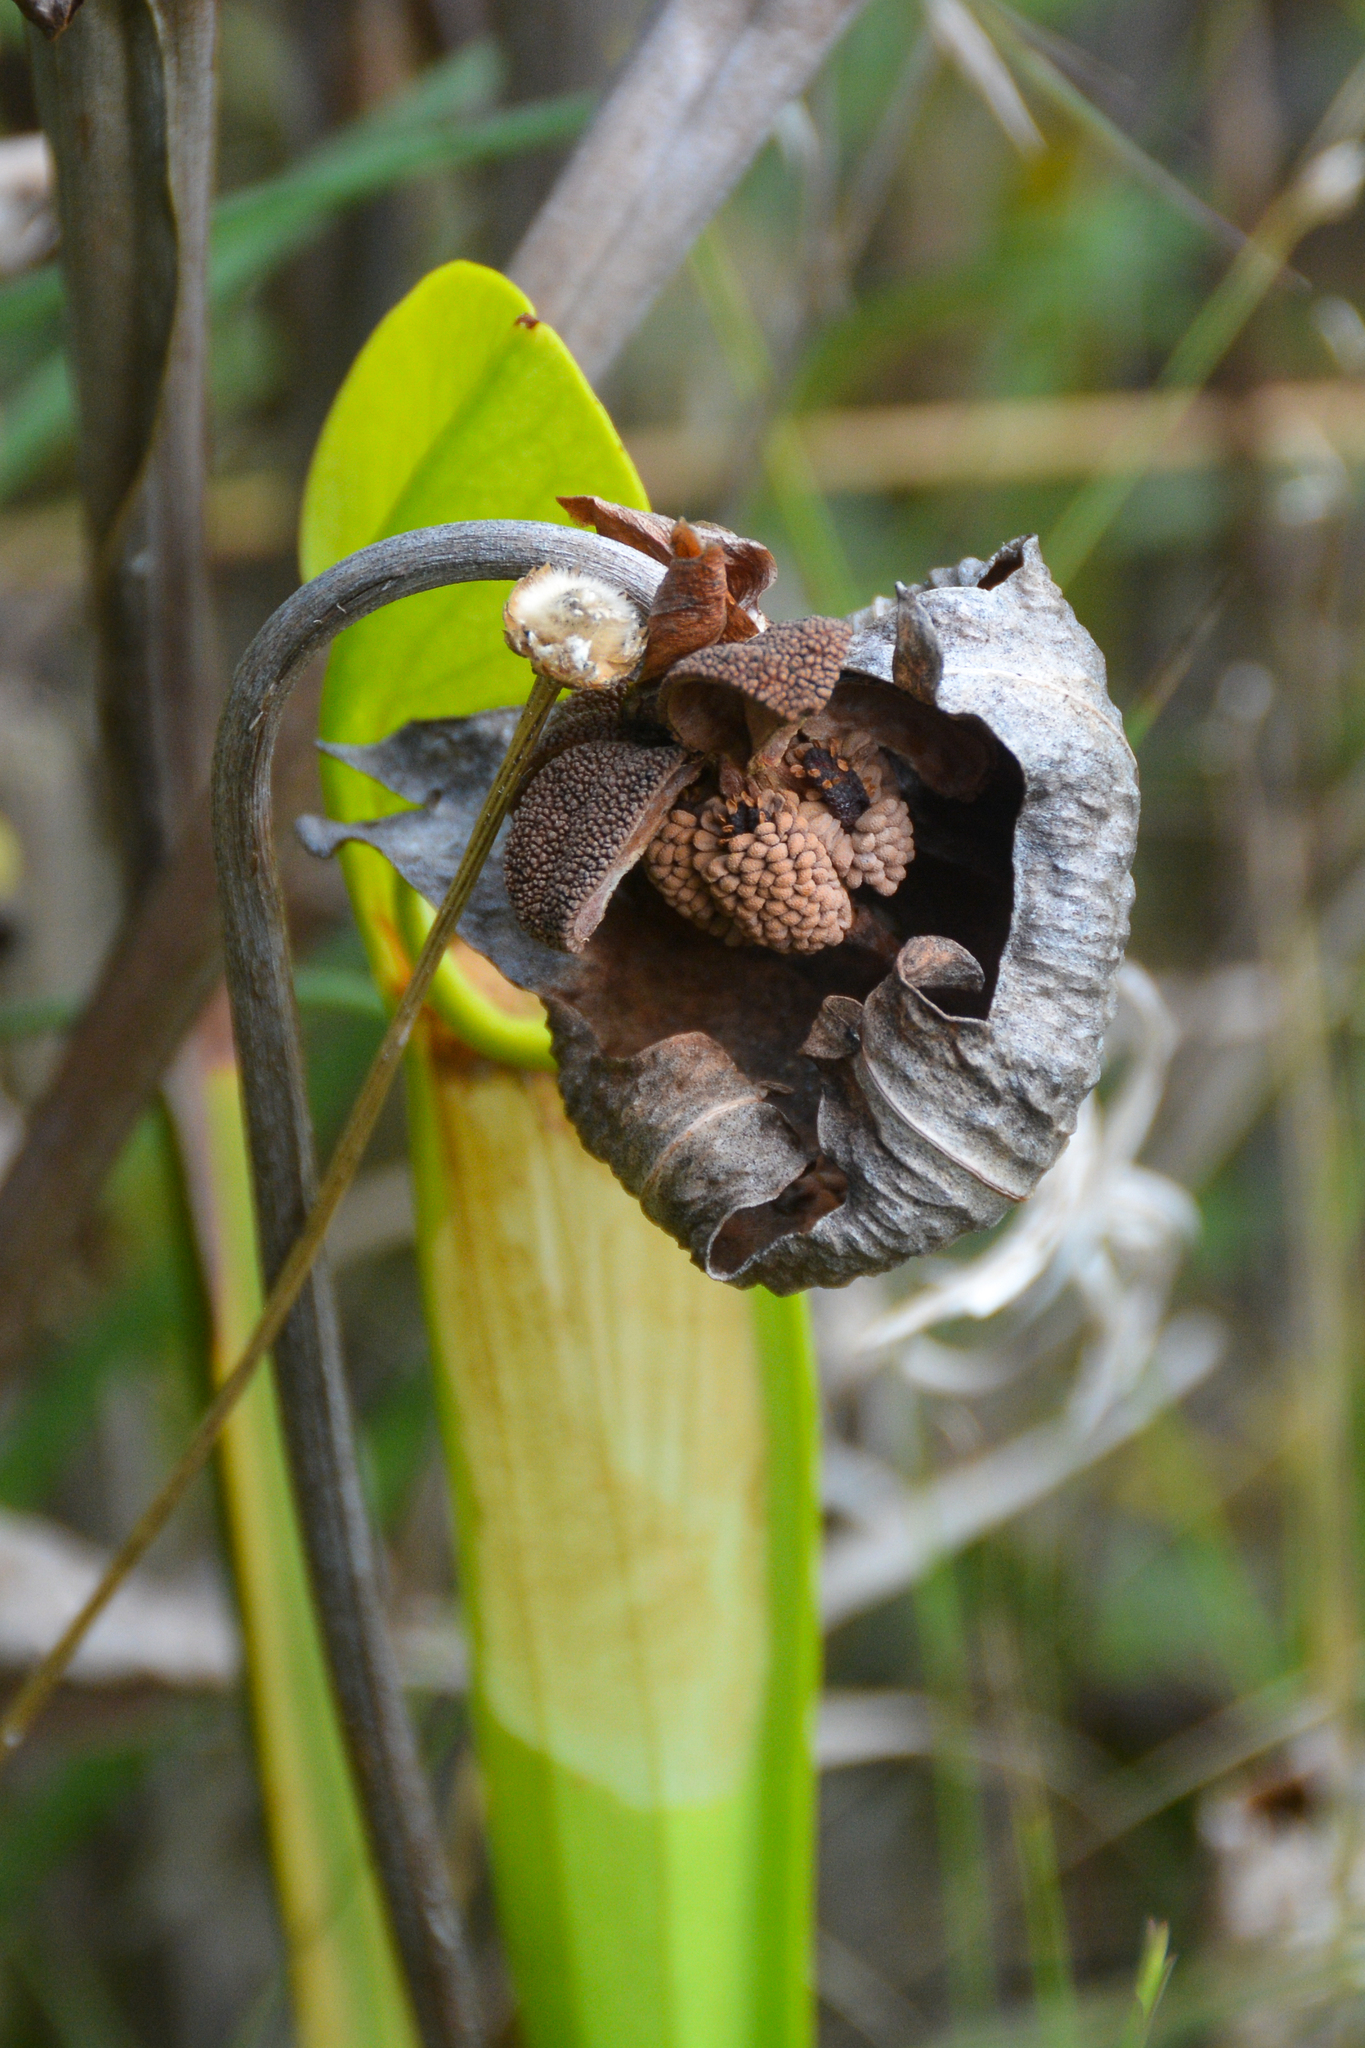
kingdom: Plantae
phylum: Tracheophyta
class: Magnoliopsida
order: Ericales
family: Sarraceniaceae
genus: Sarracenia
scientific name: Sarracenia alata
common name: Yellow trumpets
